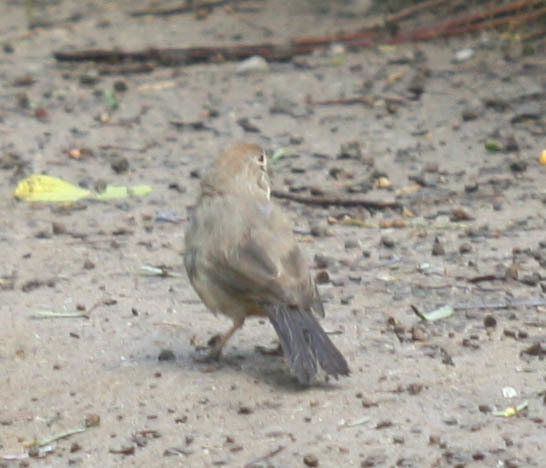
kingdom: Animalia
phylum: Chordata
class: Aves
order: Passeriformes
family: Passerellidae
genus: Melozone
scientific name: Melozone fusca
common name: Canyon towhee
